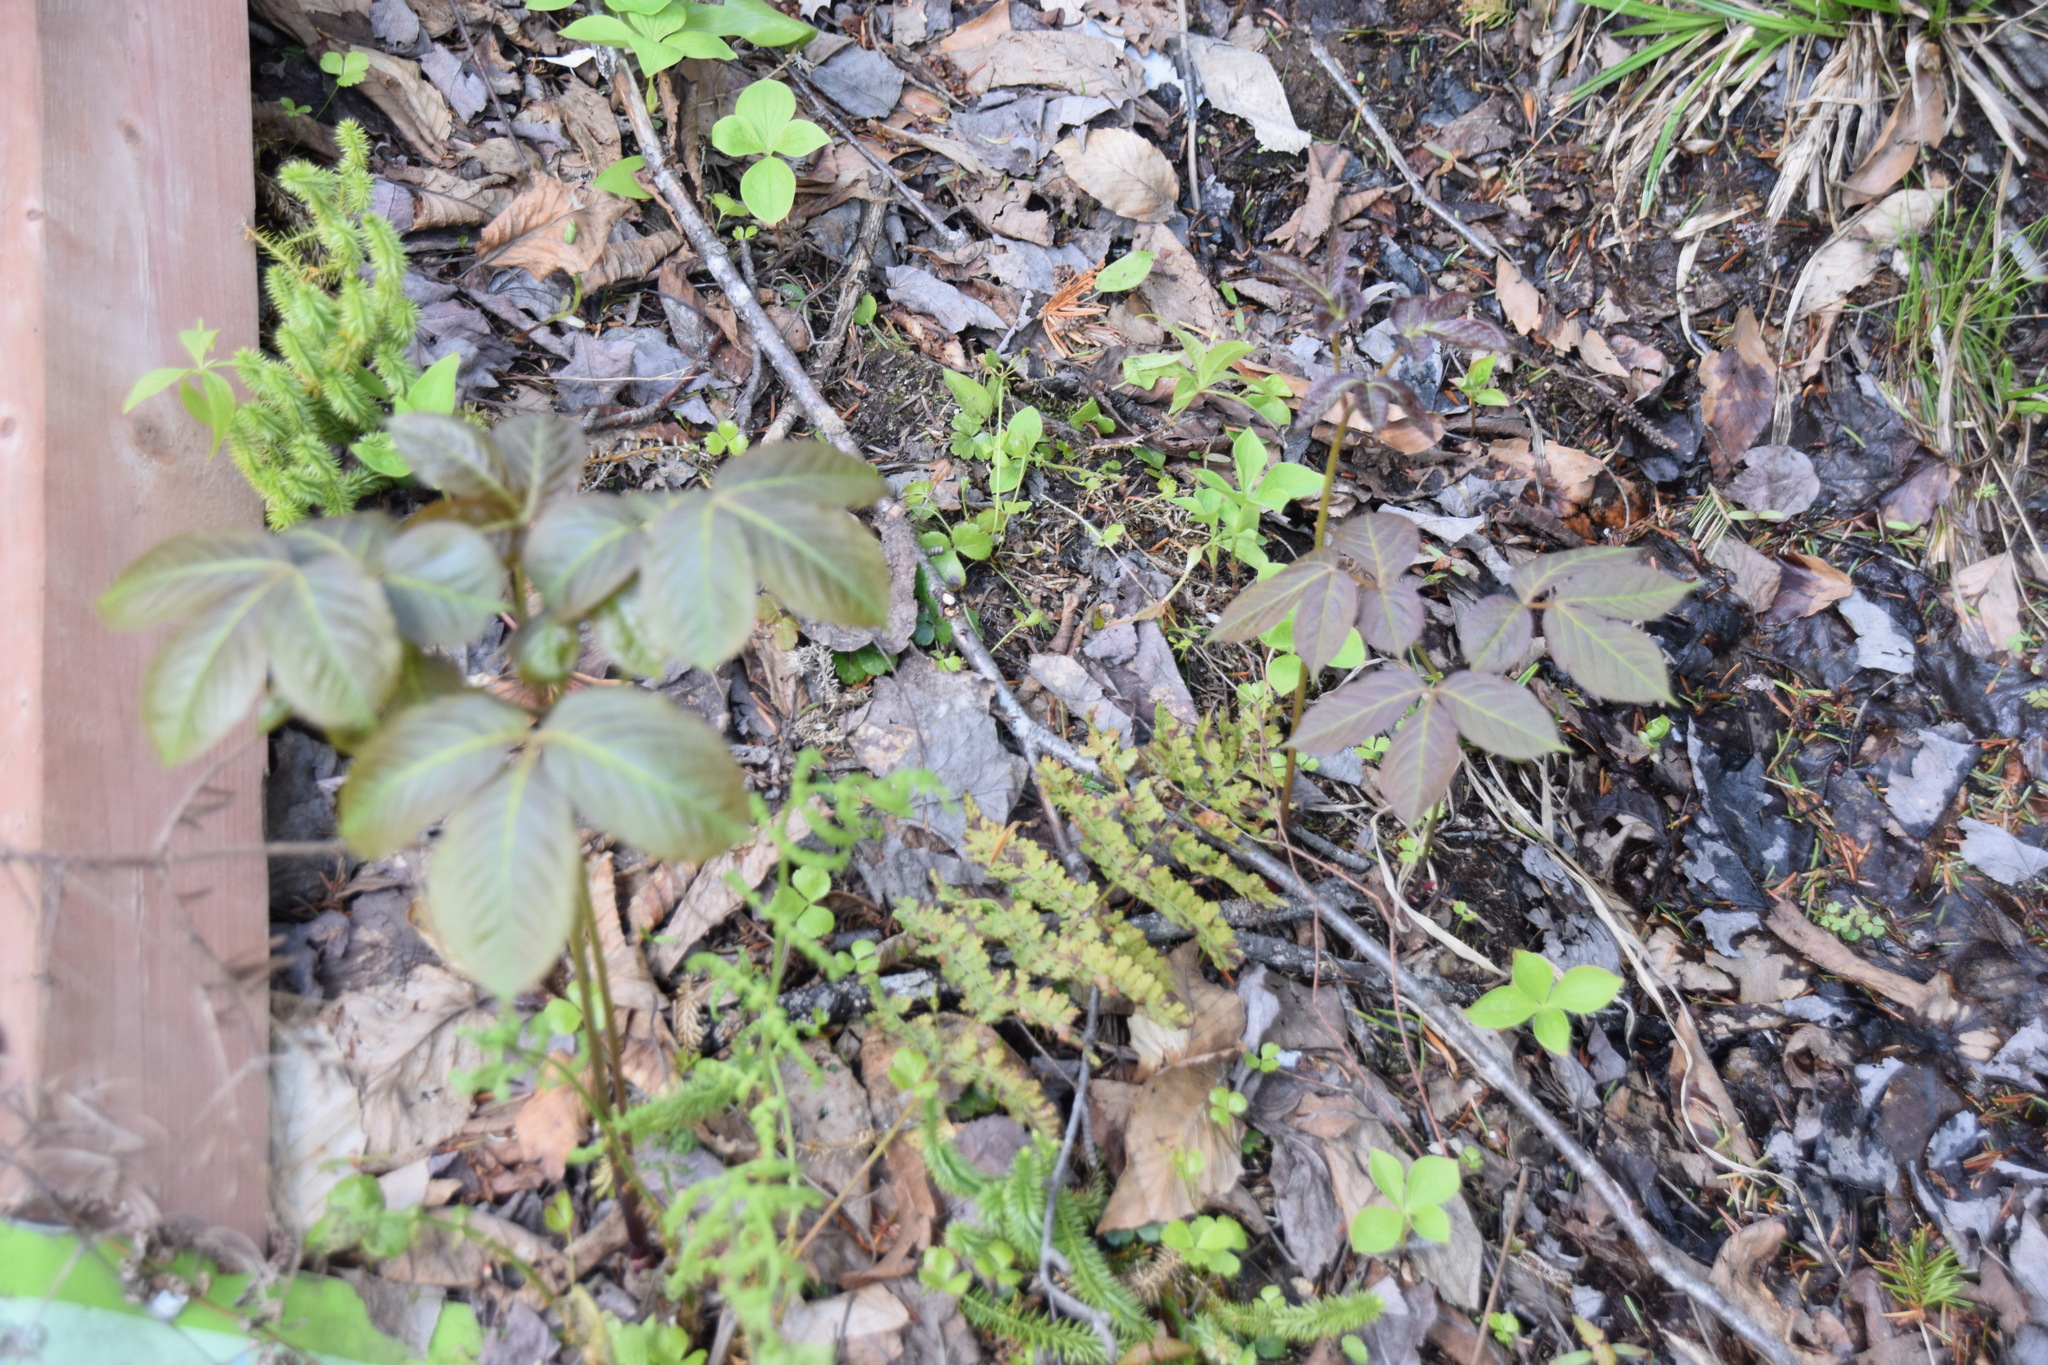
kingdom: Plantae
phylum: Tracheophyta
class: Magnoliopsida
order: Apiales
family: Araliaceae
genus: Aralia
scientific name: Aralia nudicaulis
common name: Wild sarsaparilla
